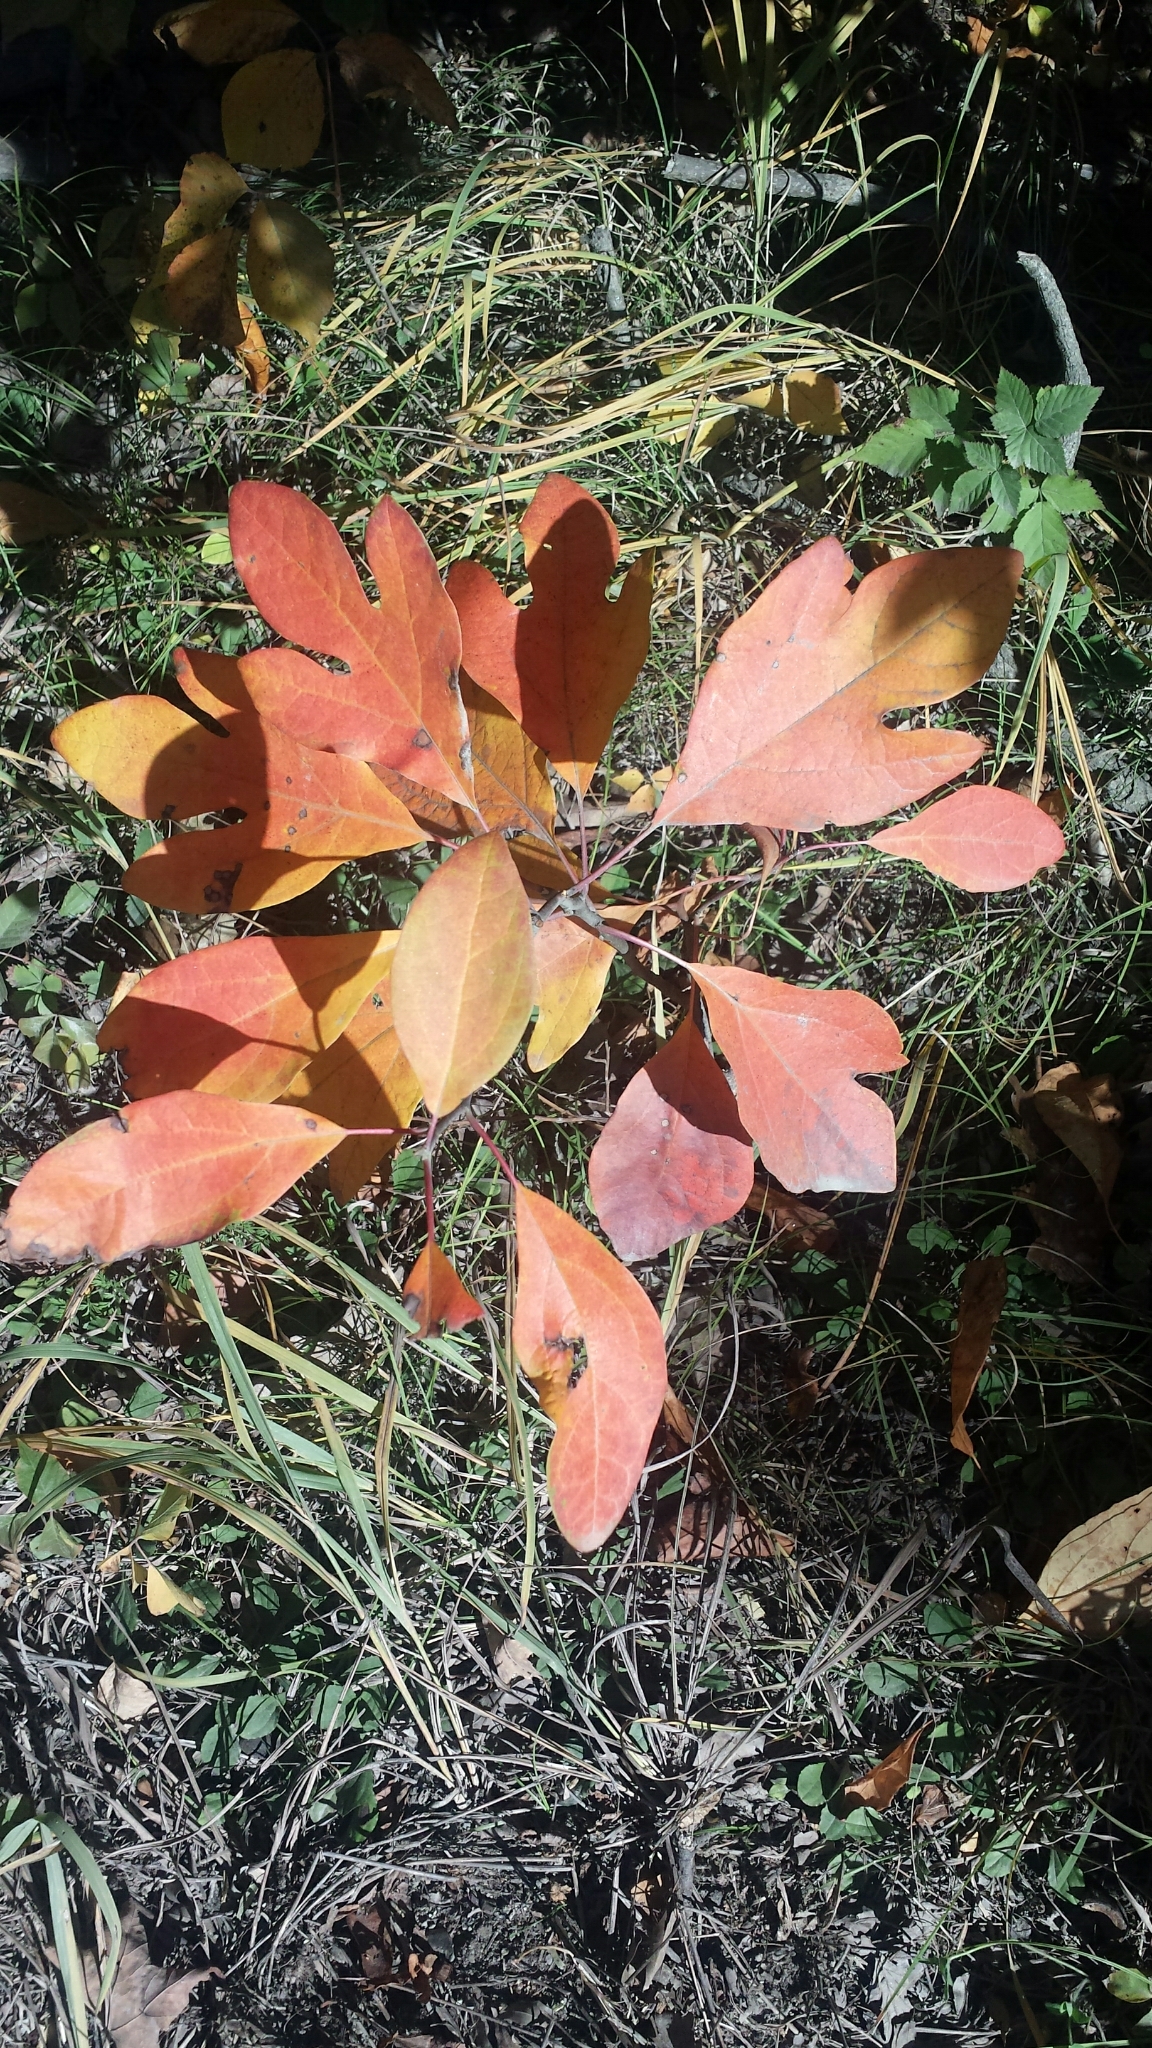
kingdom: Plantae
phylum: Tracheophyta
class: Magnoliopsida
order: Laurales
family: Lauraceae
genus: Sassafras
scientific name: Sassafras albidum
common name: Sassafras
